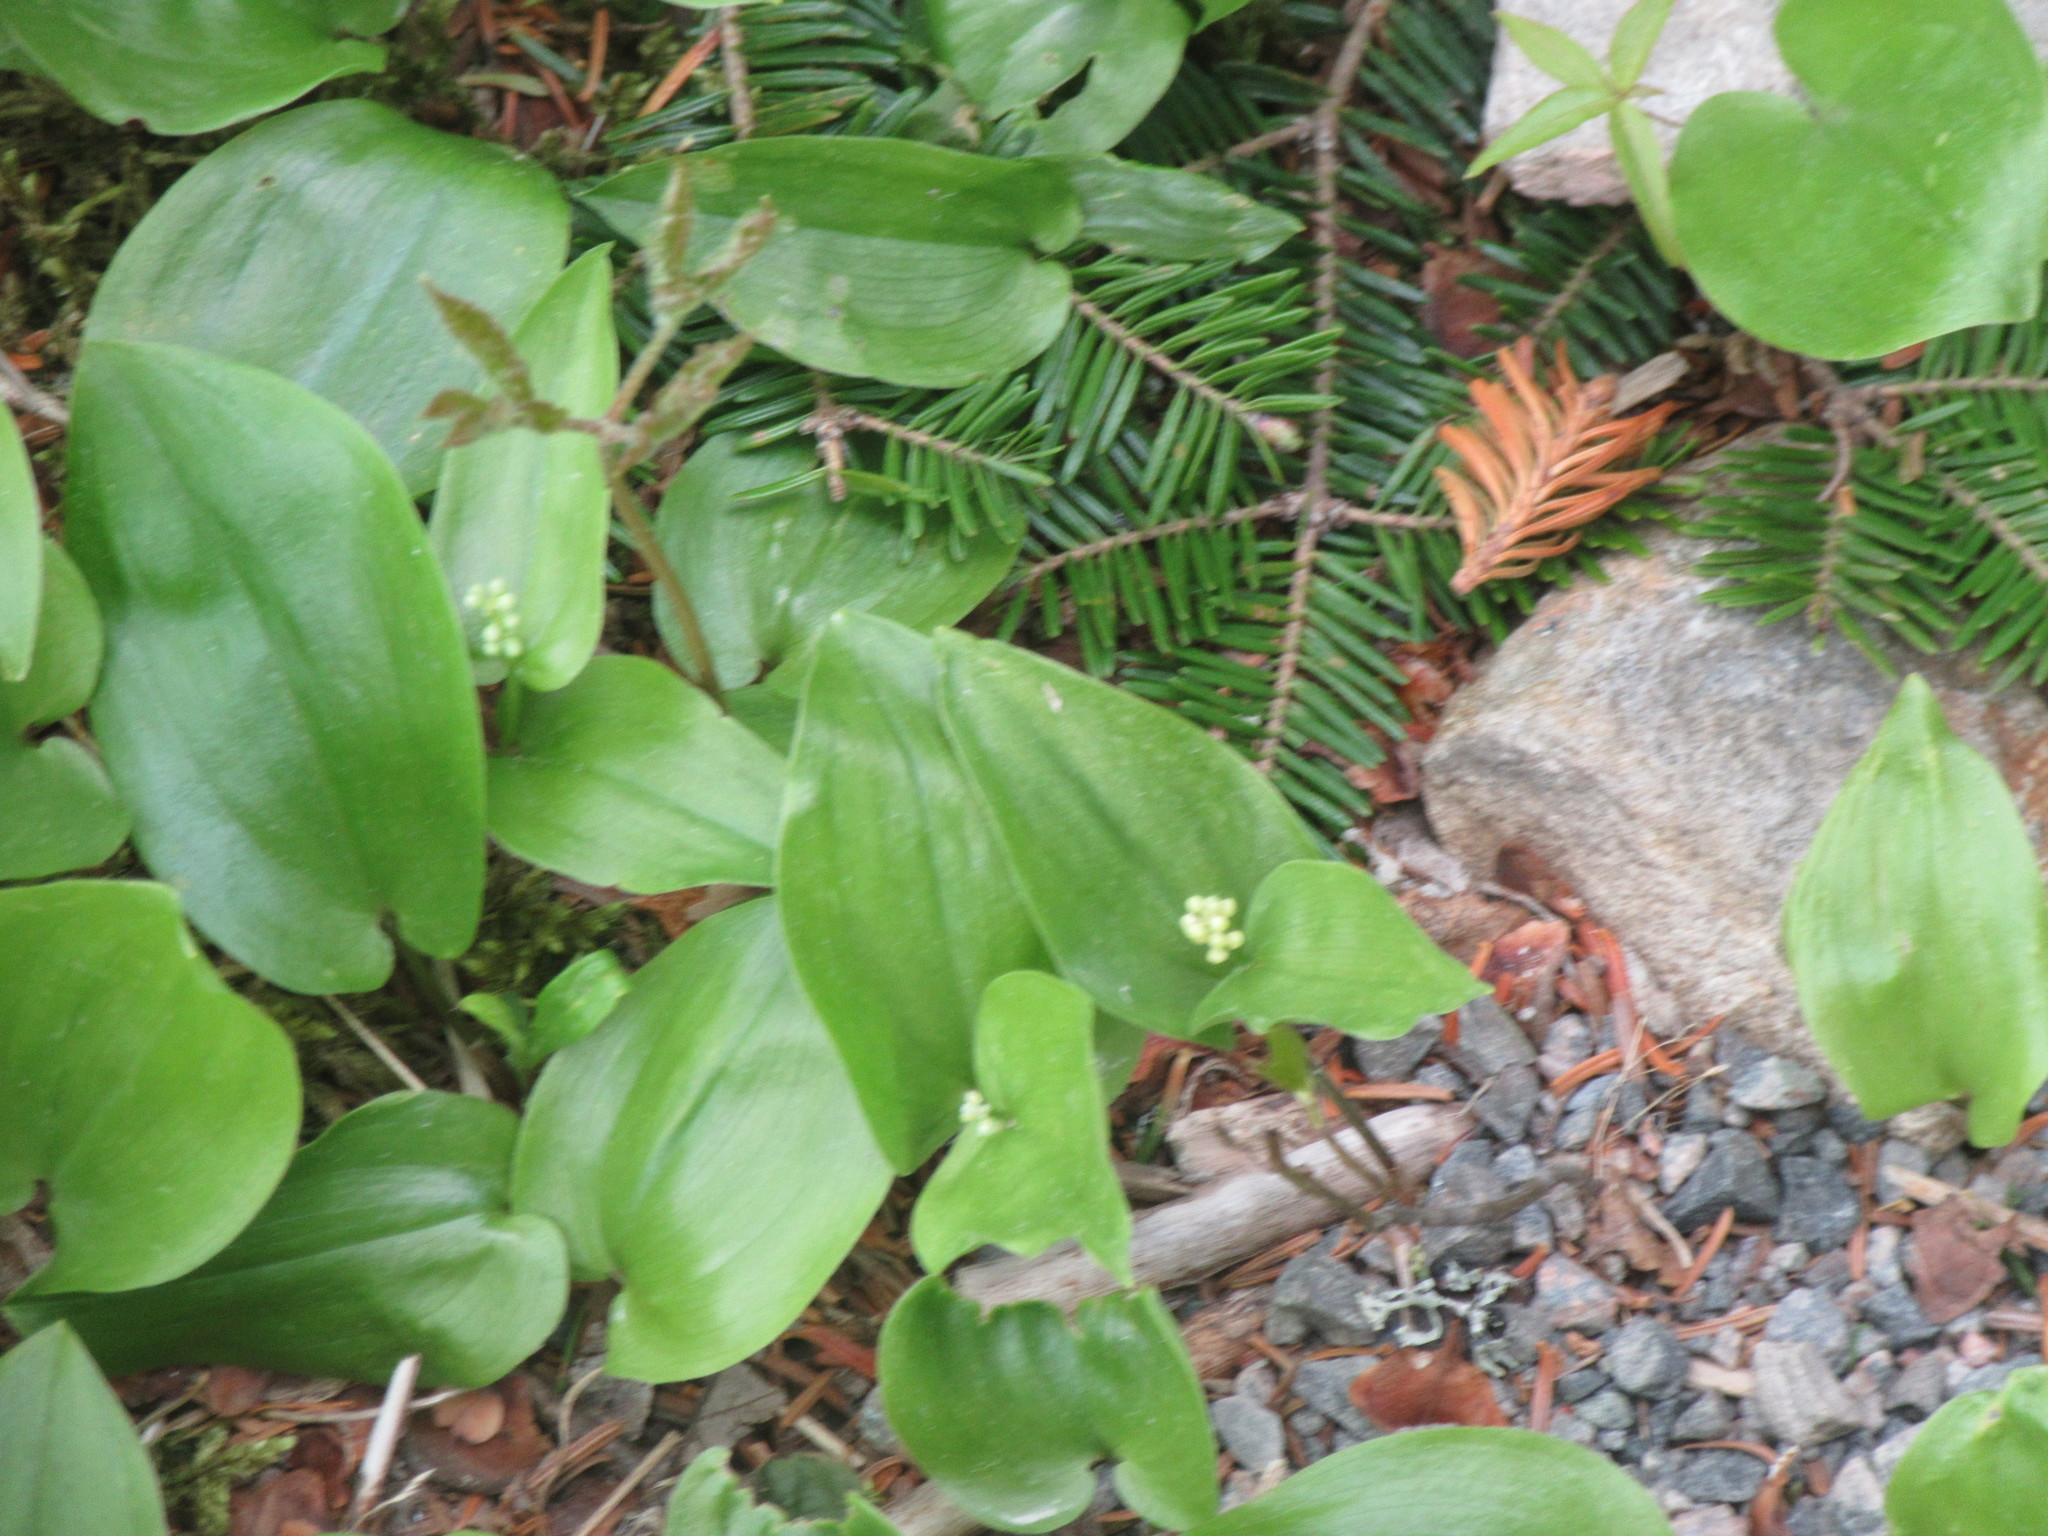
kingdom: Plantae
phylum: Tracheophyta
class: Liliopsida
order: Asparagales
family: Asparagaceae
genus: Maianthemum
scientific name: Maianthemum canadense
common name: False lily-of-the-valley
